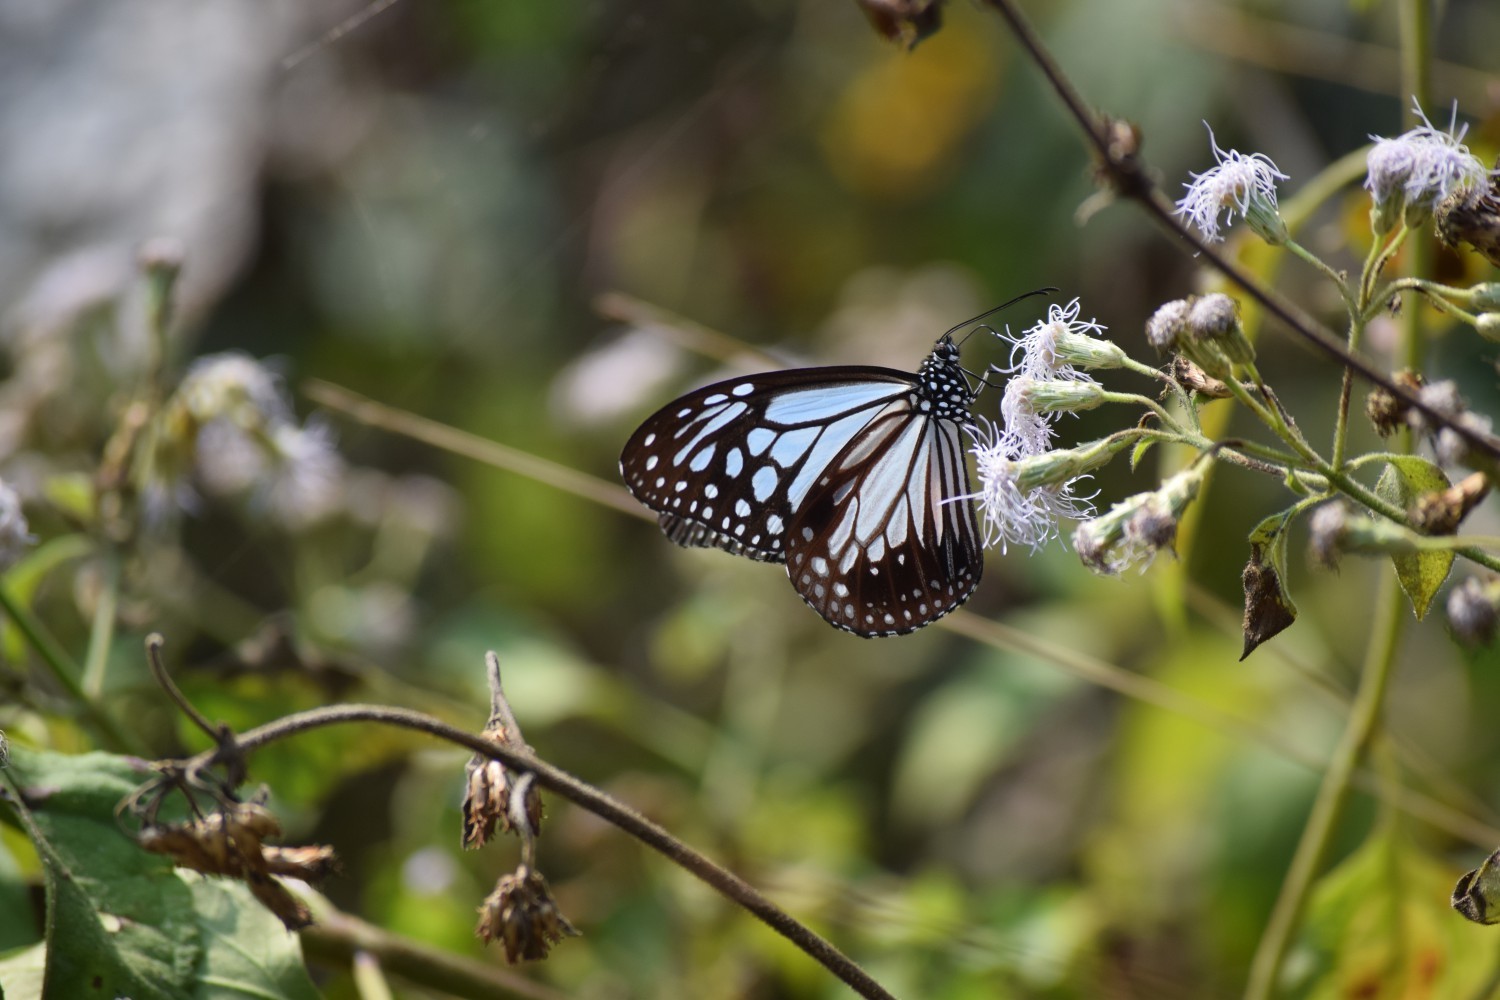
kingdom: Animalia
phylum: Arthropoda
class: Insecta
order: Lepidoptera
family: Nymphalidae
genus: Parantica
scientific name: Parantica aglea
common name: Glassy tiger
